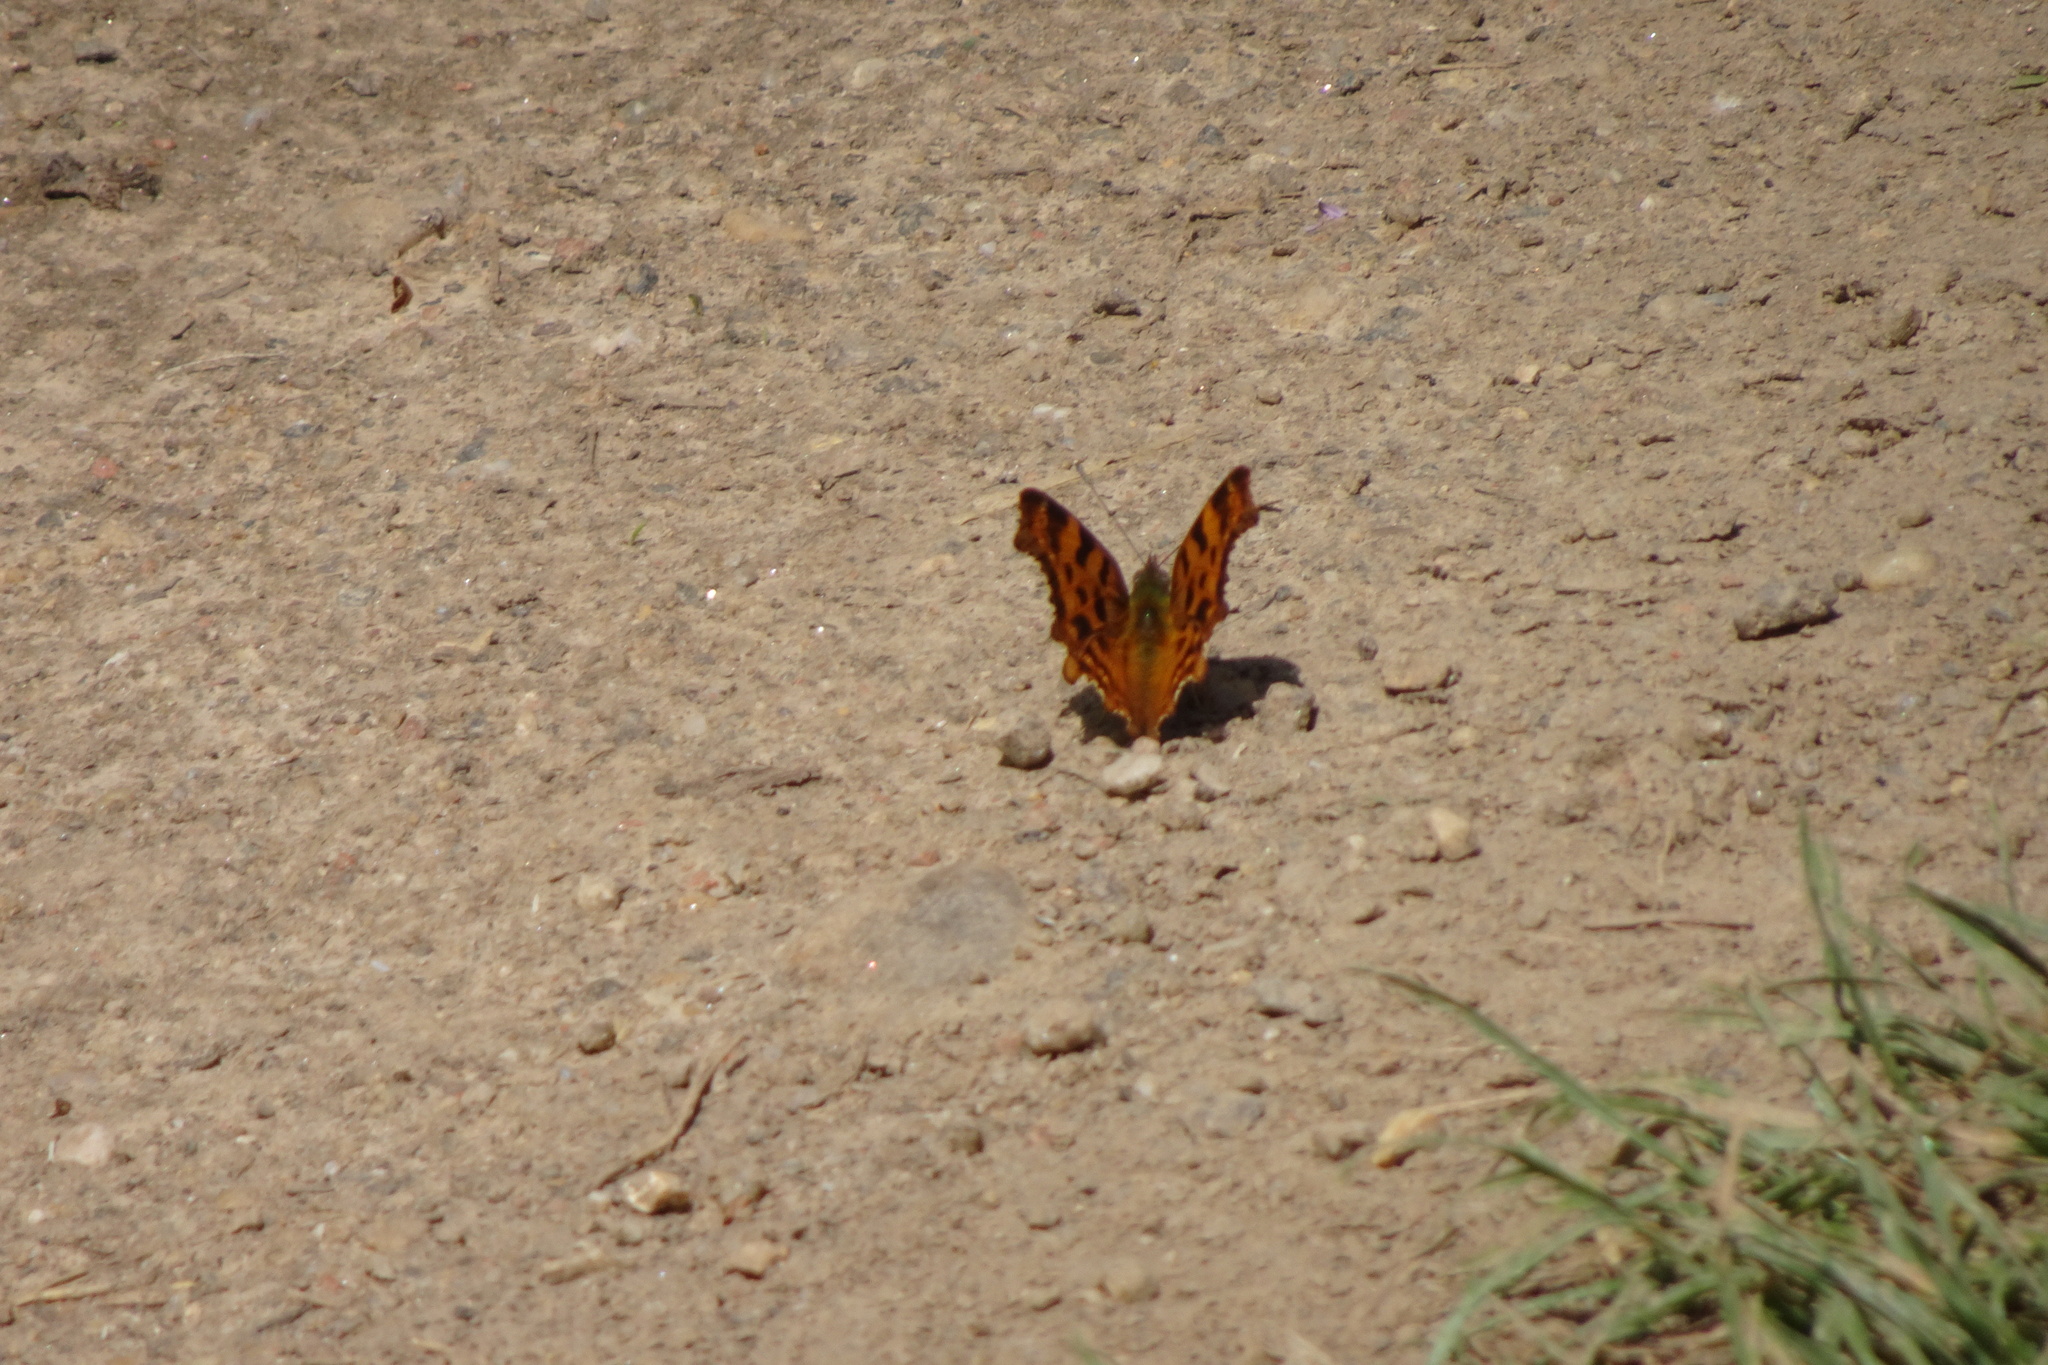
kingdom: Animalia
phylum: Arthropoda
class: Insecta
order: Lepidoptera
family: Nymphalidae
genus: Polygonia
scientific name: Polygonia c-album
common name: Comma
